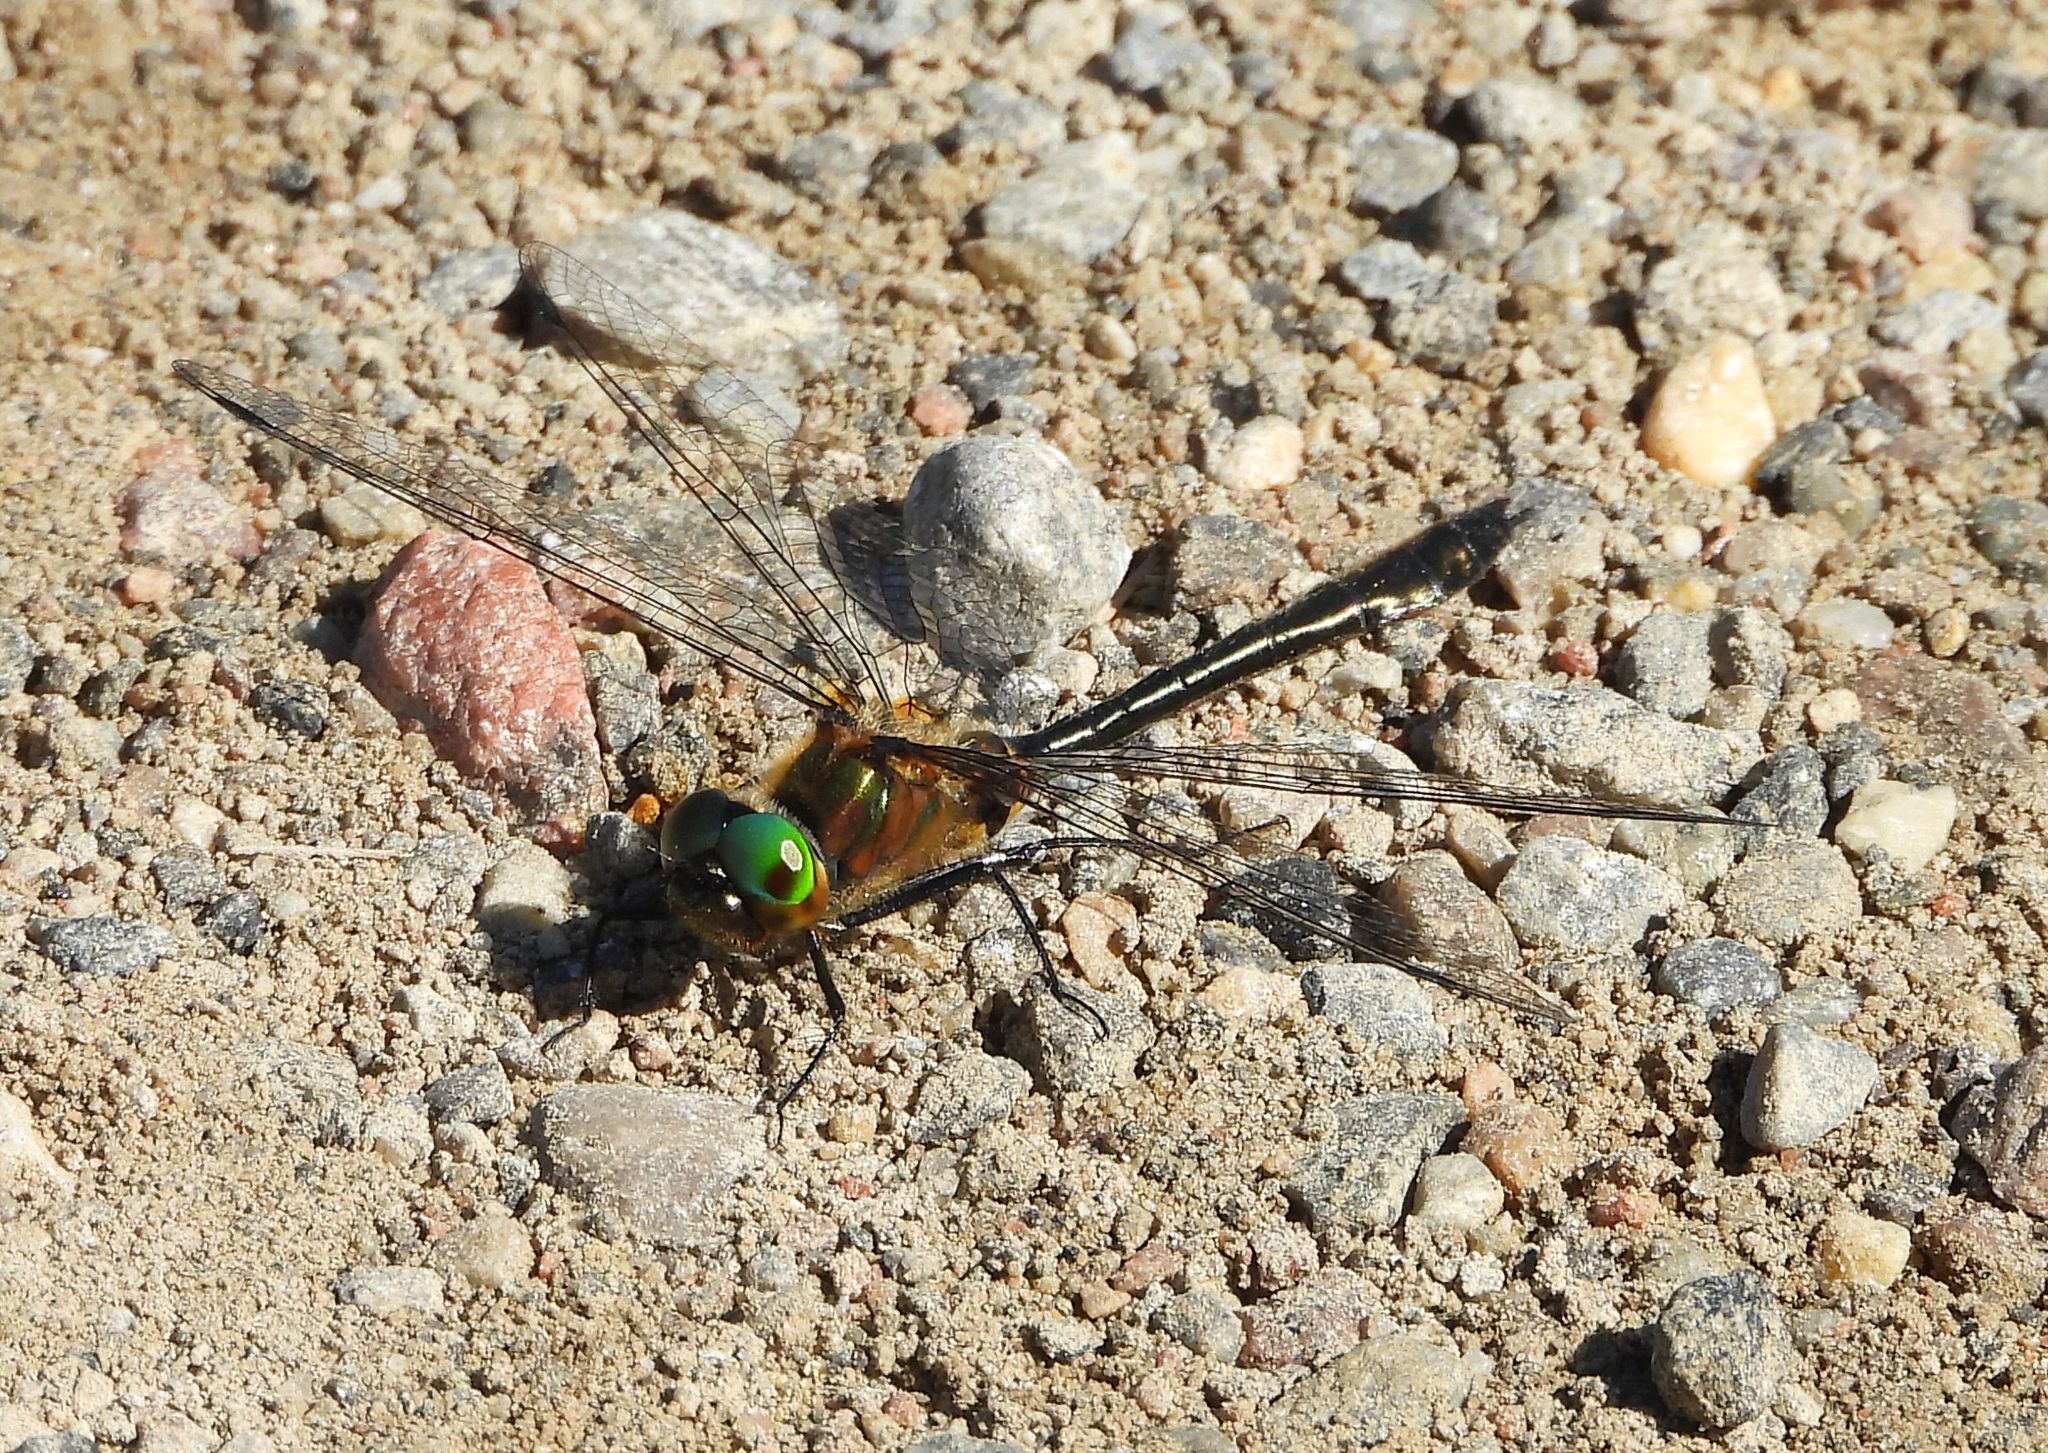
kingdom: Animalia
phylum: Arthropoda
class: Insecta
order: Odonata
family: Corduliidae
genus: Dorocordulia
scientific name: Dorocordulia libera
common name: Racket-tailed emerald
